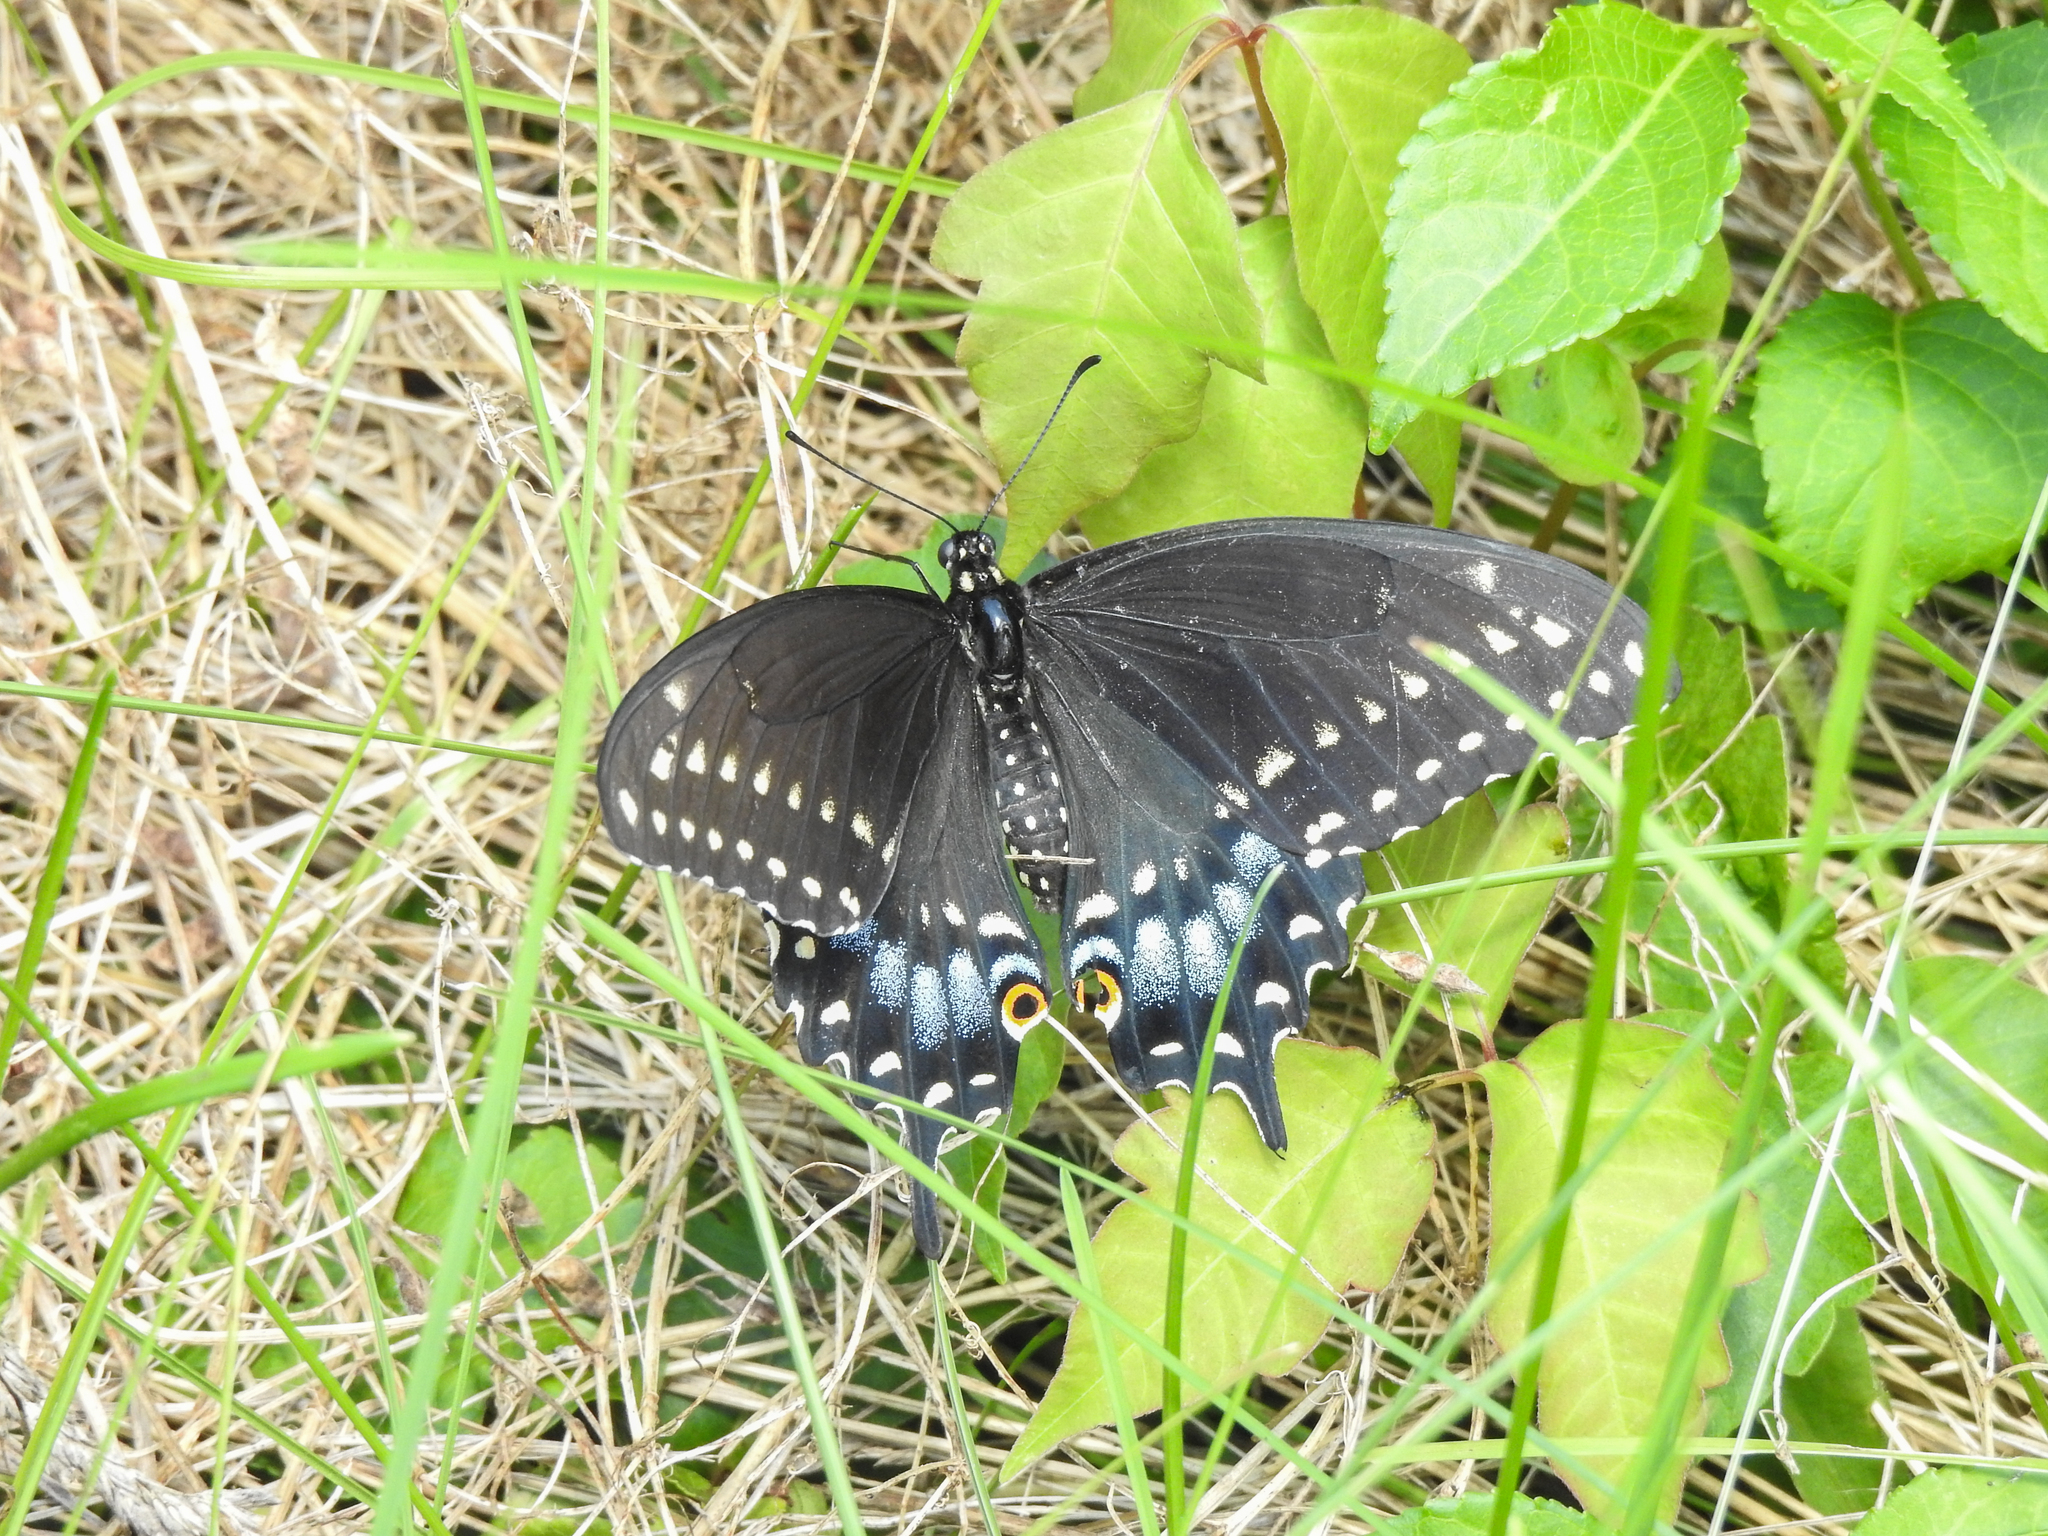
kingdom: Animalia
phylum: Arthropoda
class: Insecta
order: Lepidoptera
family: Papilionidae
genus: Papilio
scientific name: Papilio polyxenes
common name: Black swallowtail
